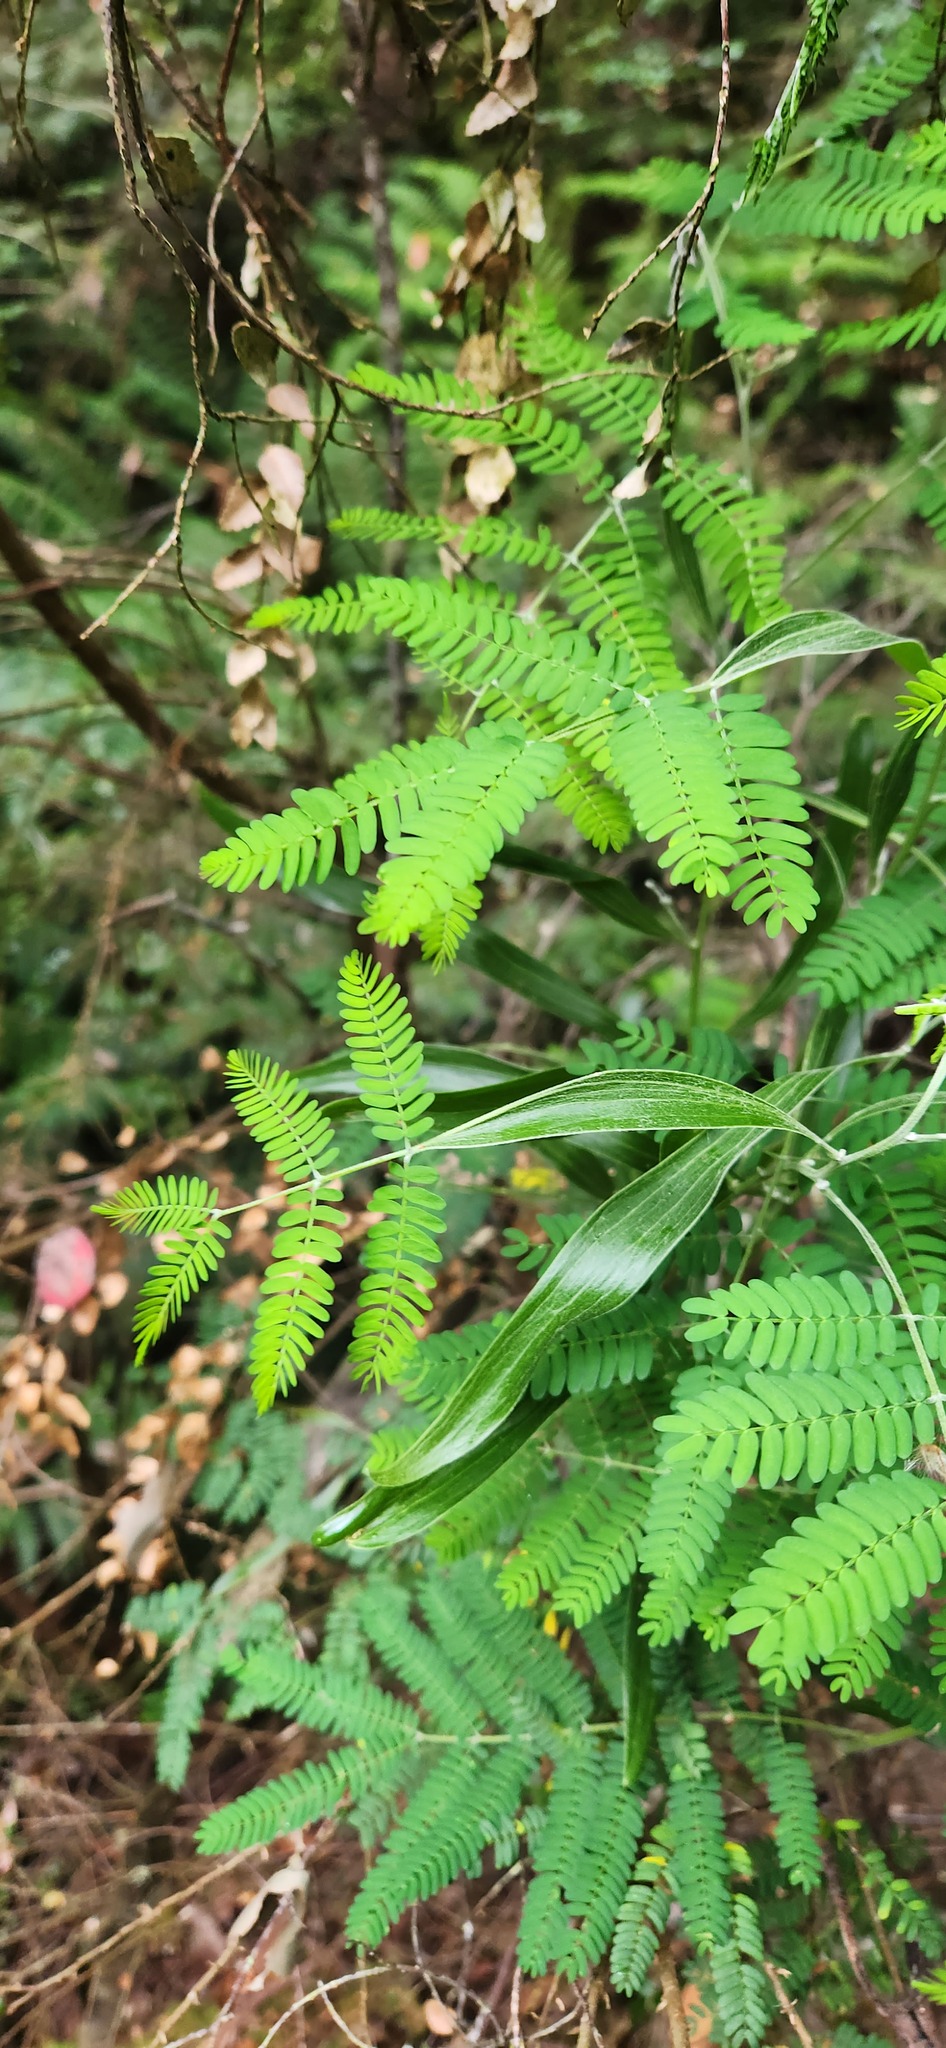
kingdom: Plantae
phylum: Tracheophyta
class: Magnoliopsida
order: Fabales
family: Fabaceae
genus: Acacia
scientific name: Acacia melanoxylon
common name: Blackwood
